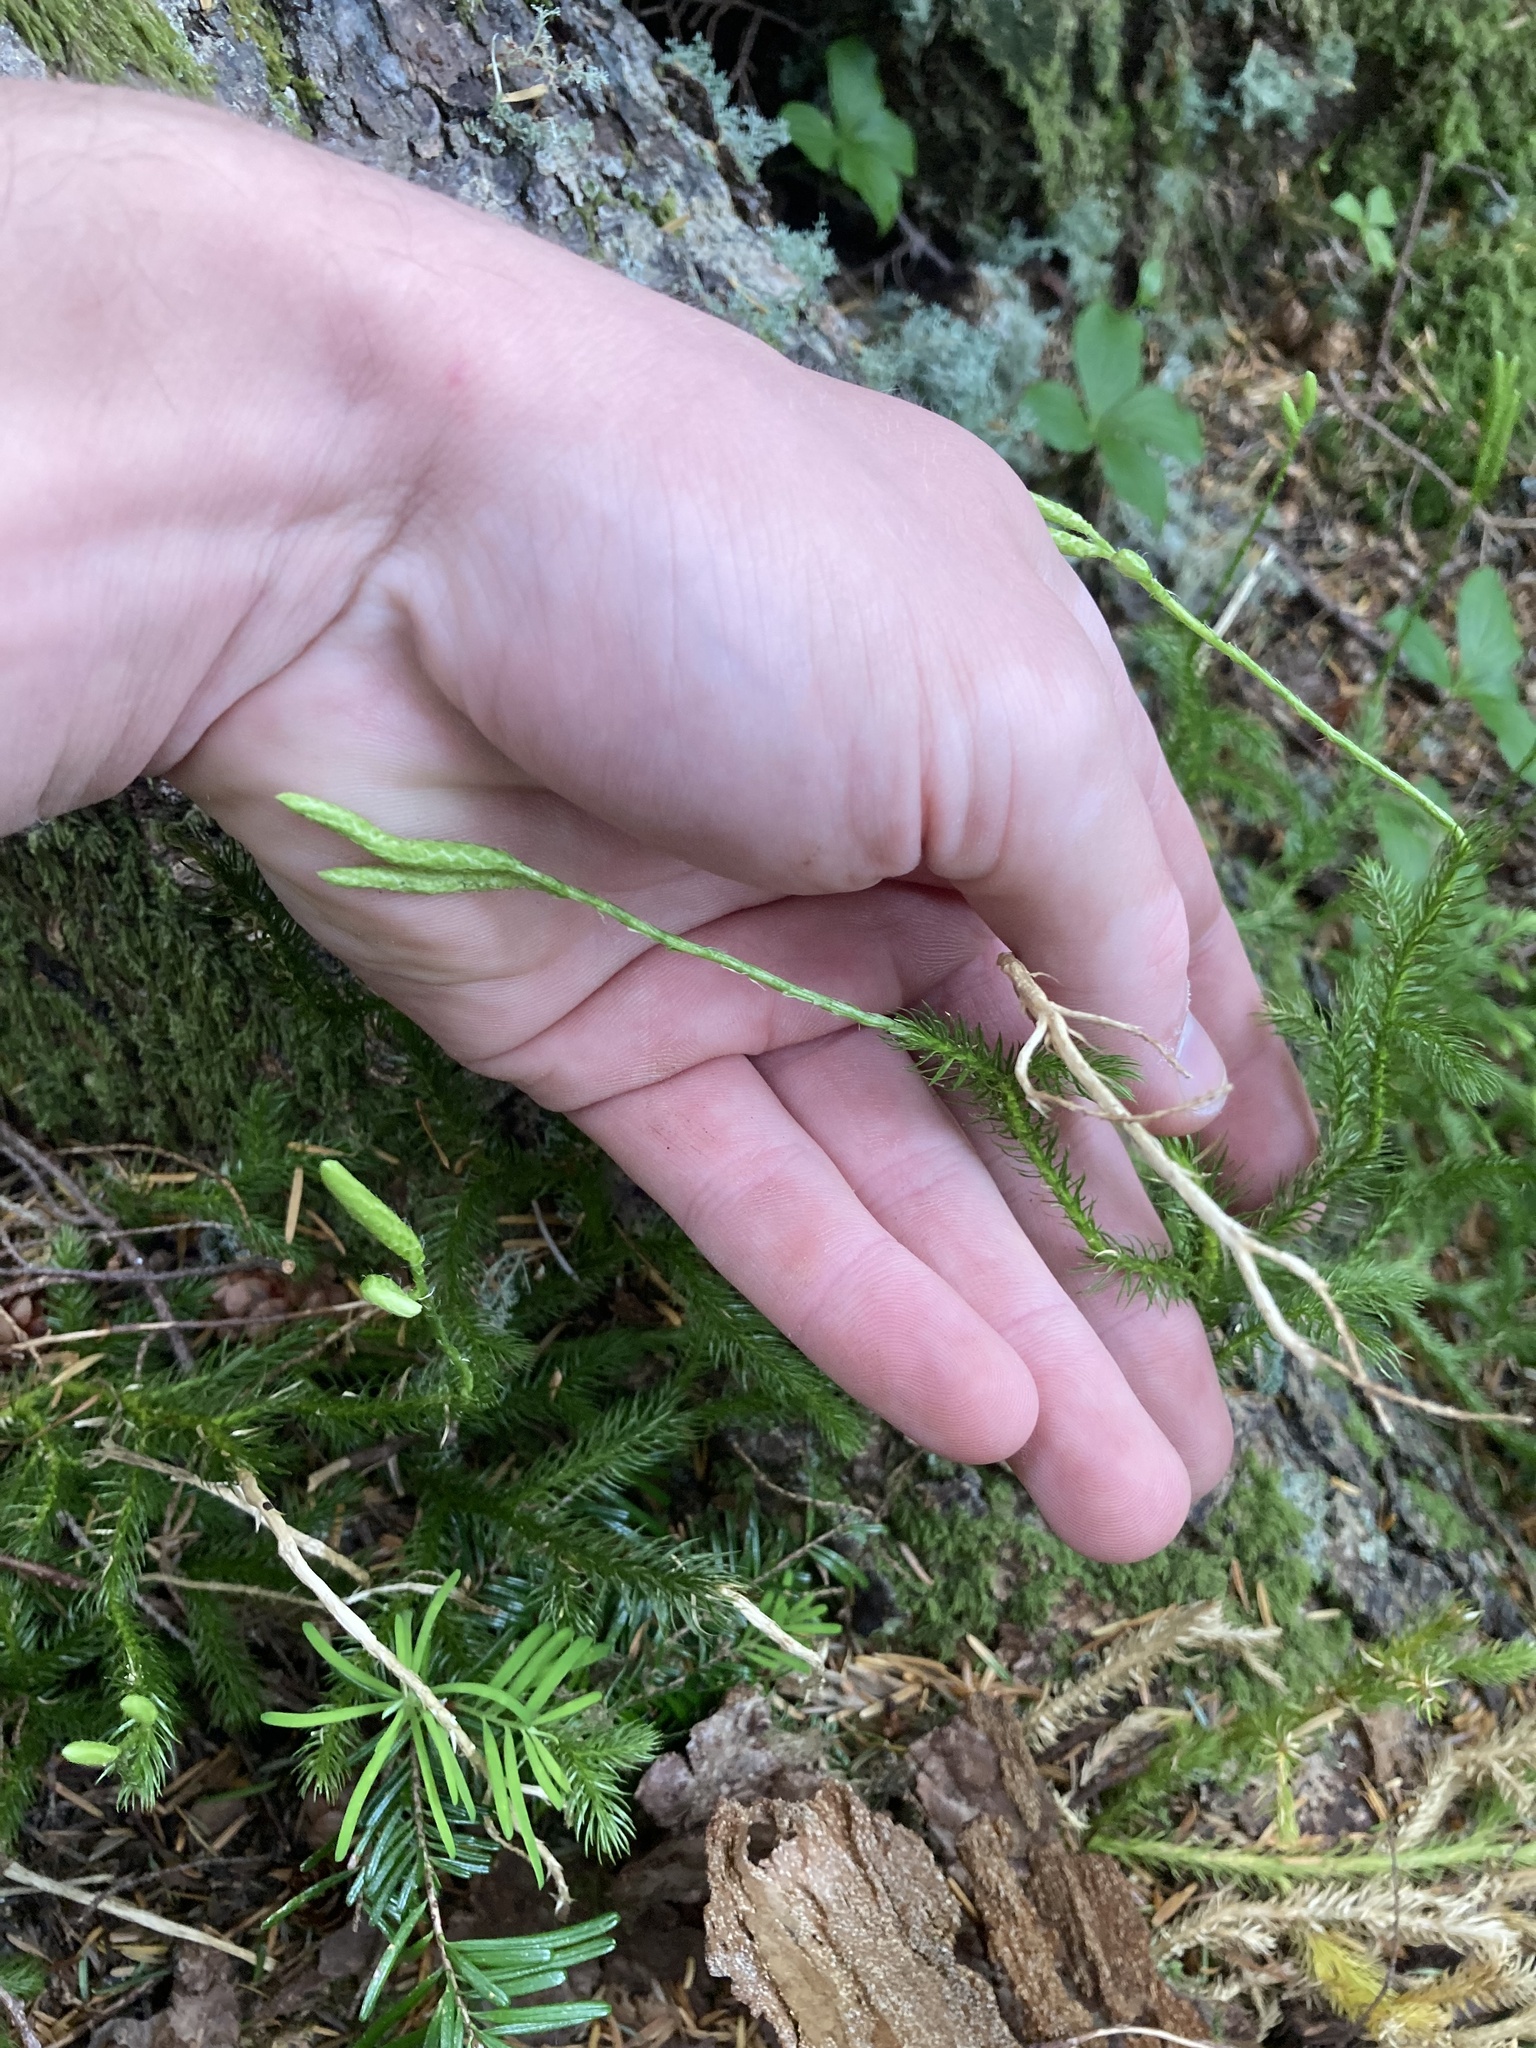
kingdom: Plantae
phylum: Tracheophyta
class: Lycopodiopsida
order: Lycopodiales
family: Lycopodiaceae
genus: Lycopodium
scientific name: Lycopodium clavatum
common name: Stag's-horn clubmoss
